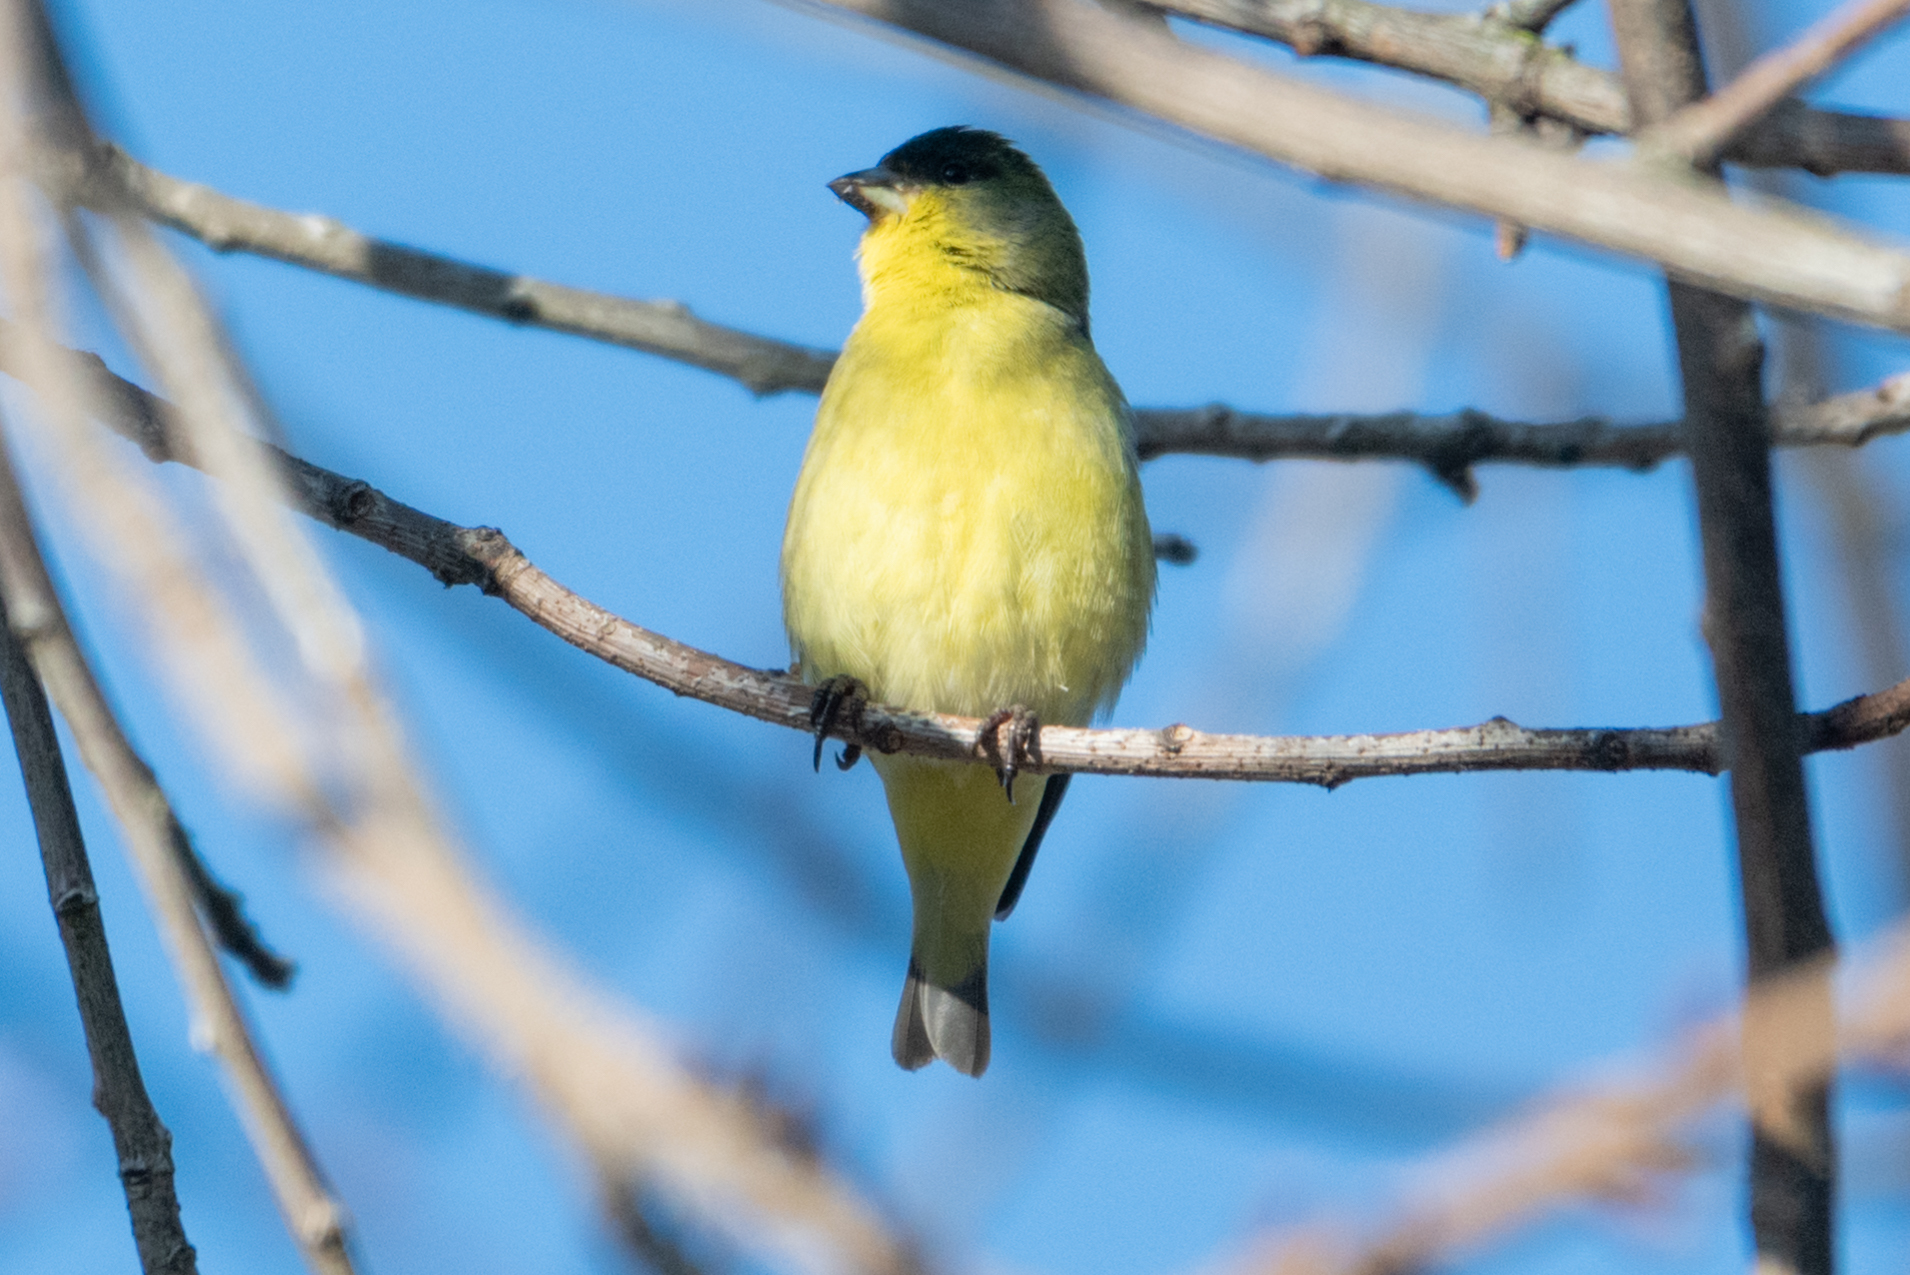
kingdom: Animalia
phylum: Chordata
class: Aves
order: Passeriformes
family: Fringillidae
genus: Spinus
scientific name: Spinus psaltria
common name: Lesser goldfinch
